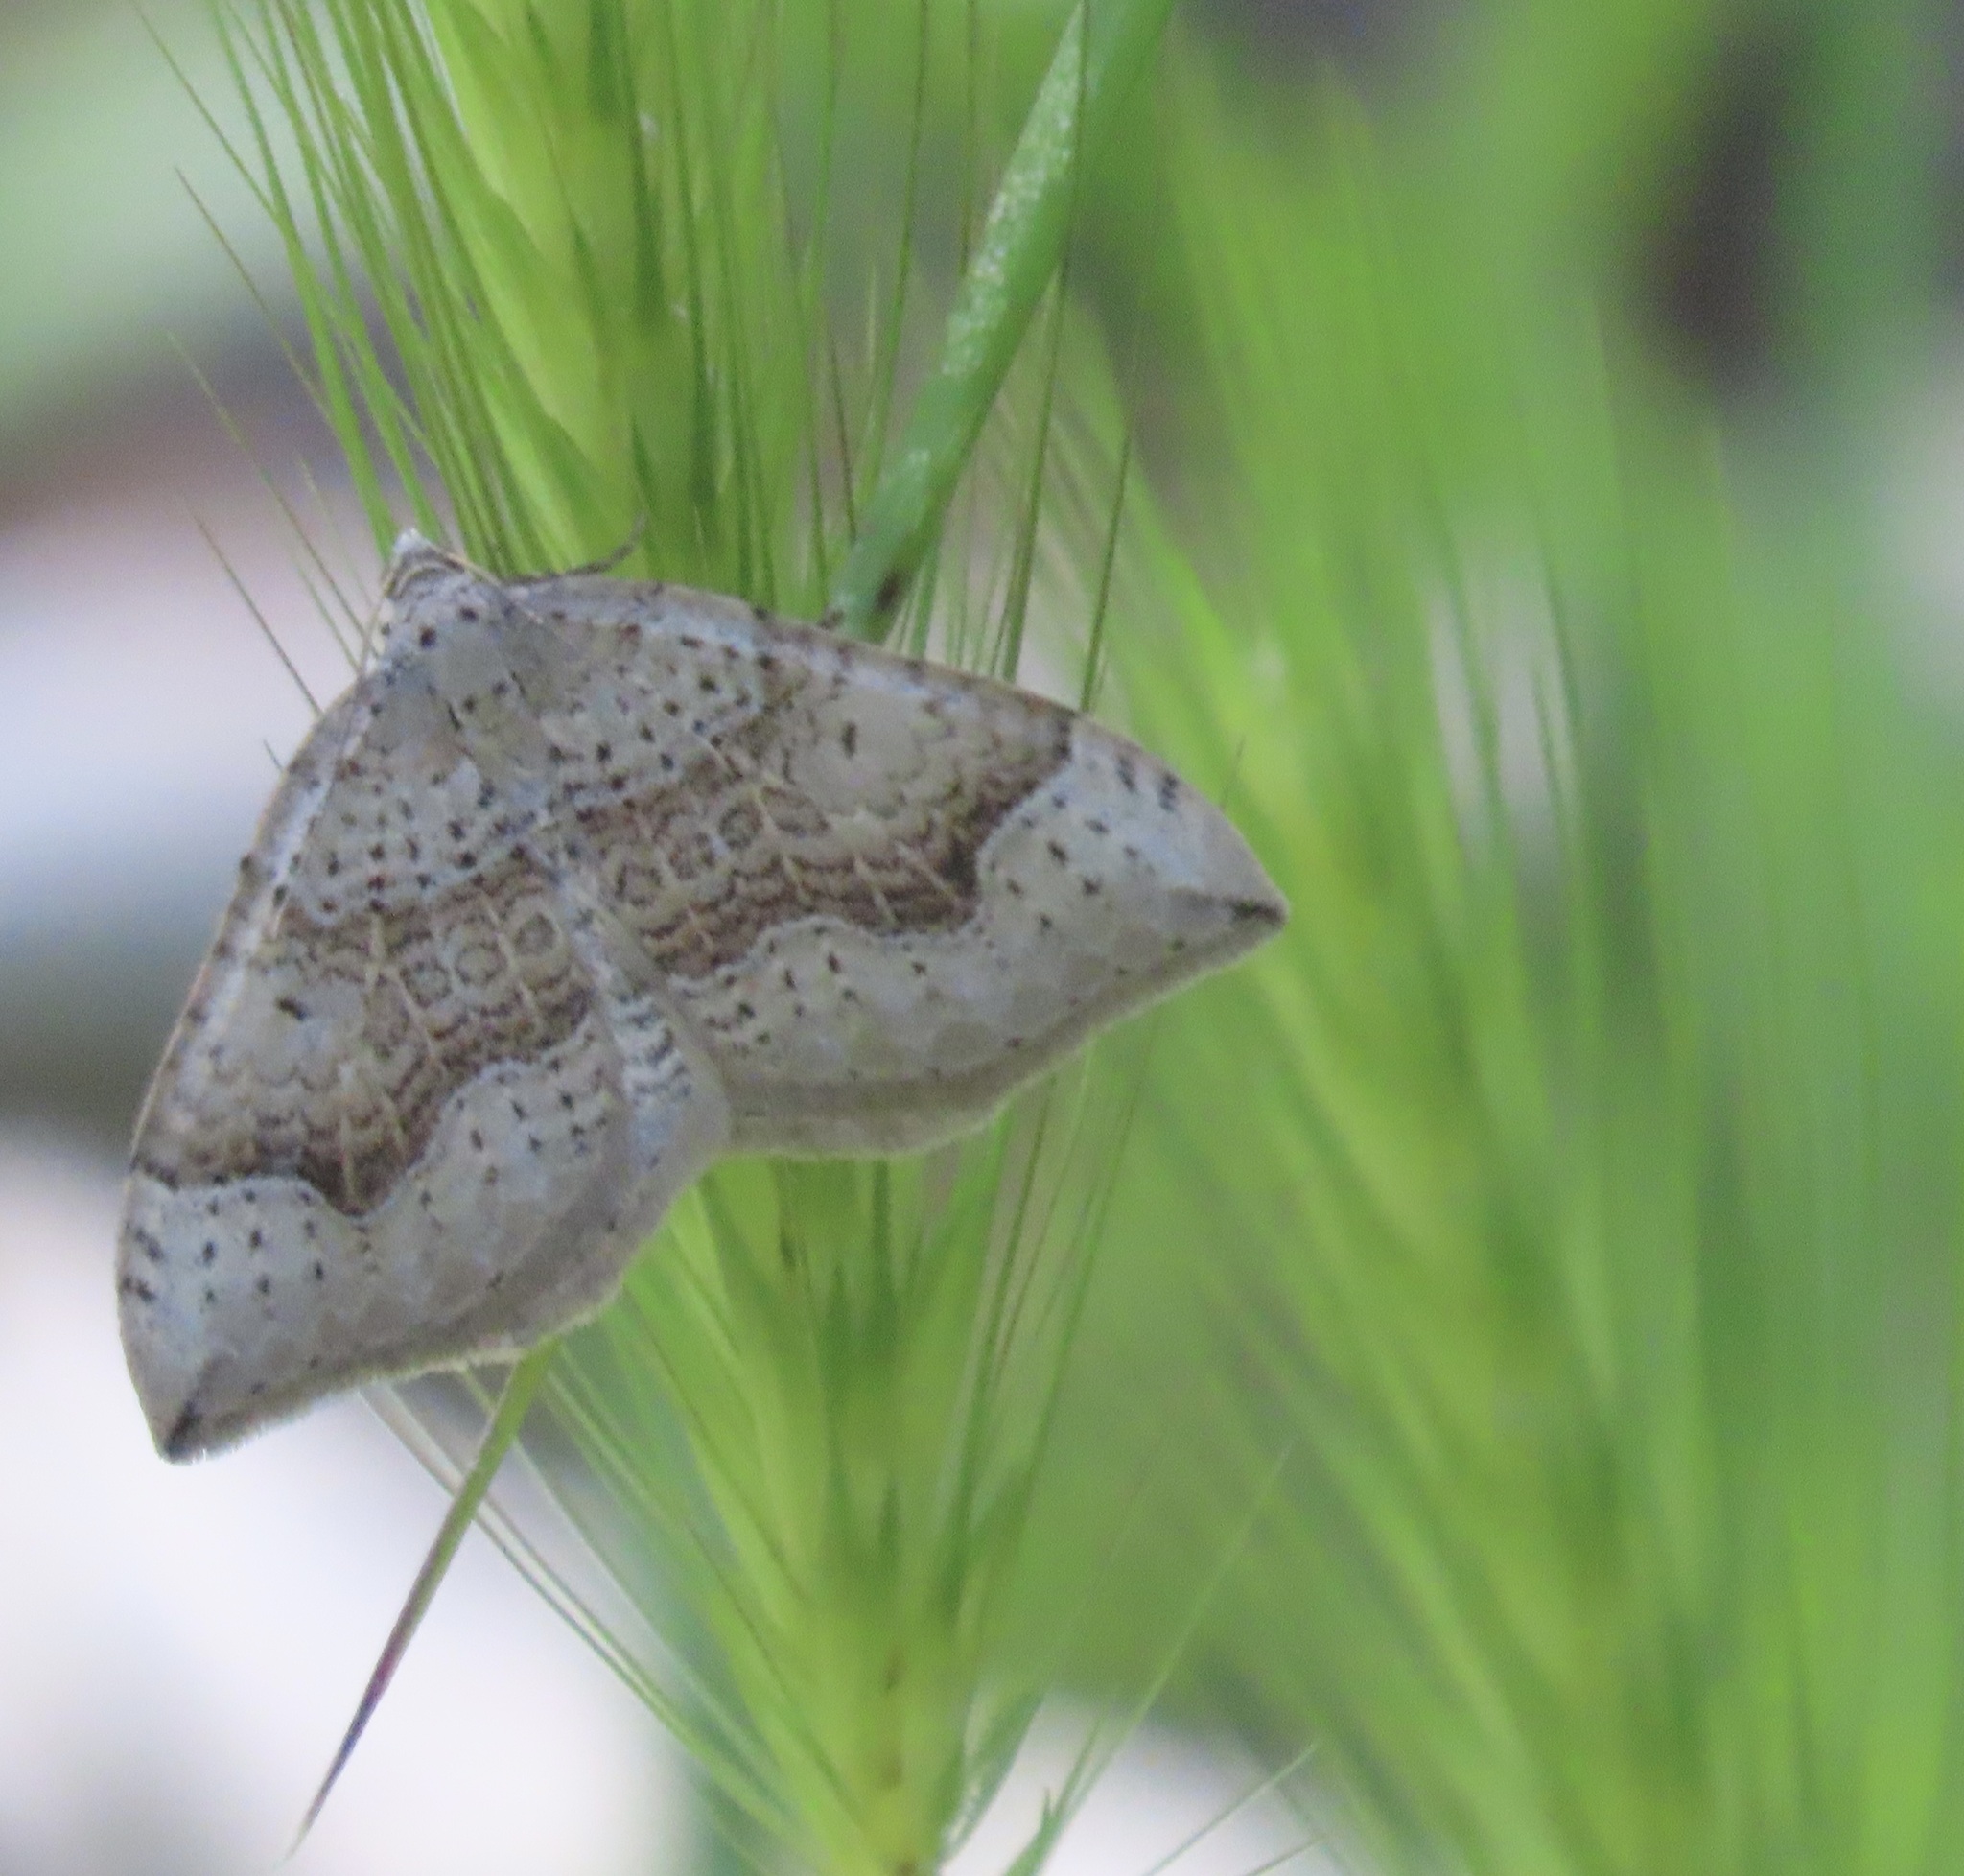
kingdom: Animalia
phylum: Arthropoda
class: Insecta
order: Lepidoptera
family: Geometridae
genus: Zenophleps
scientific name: Zenophleps lignicolorata
